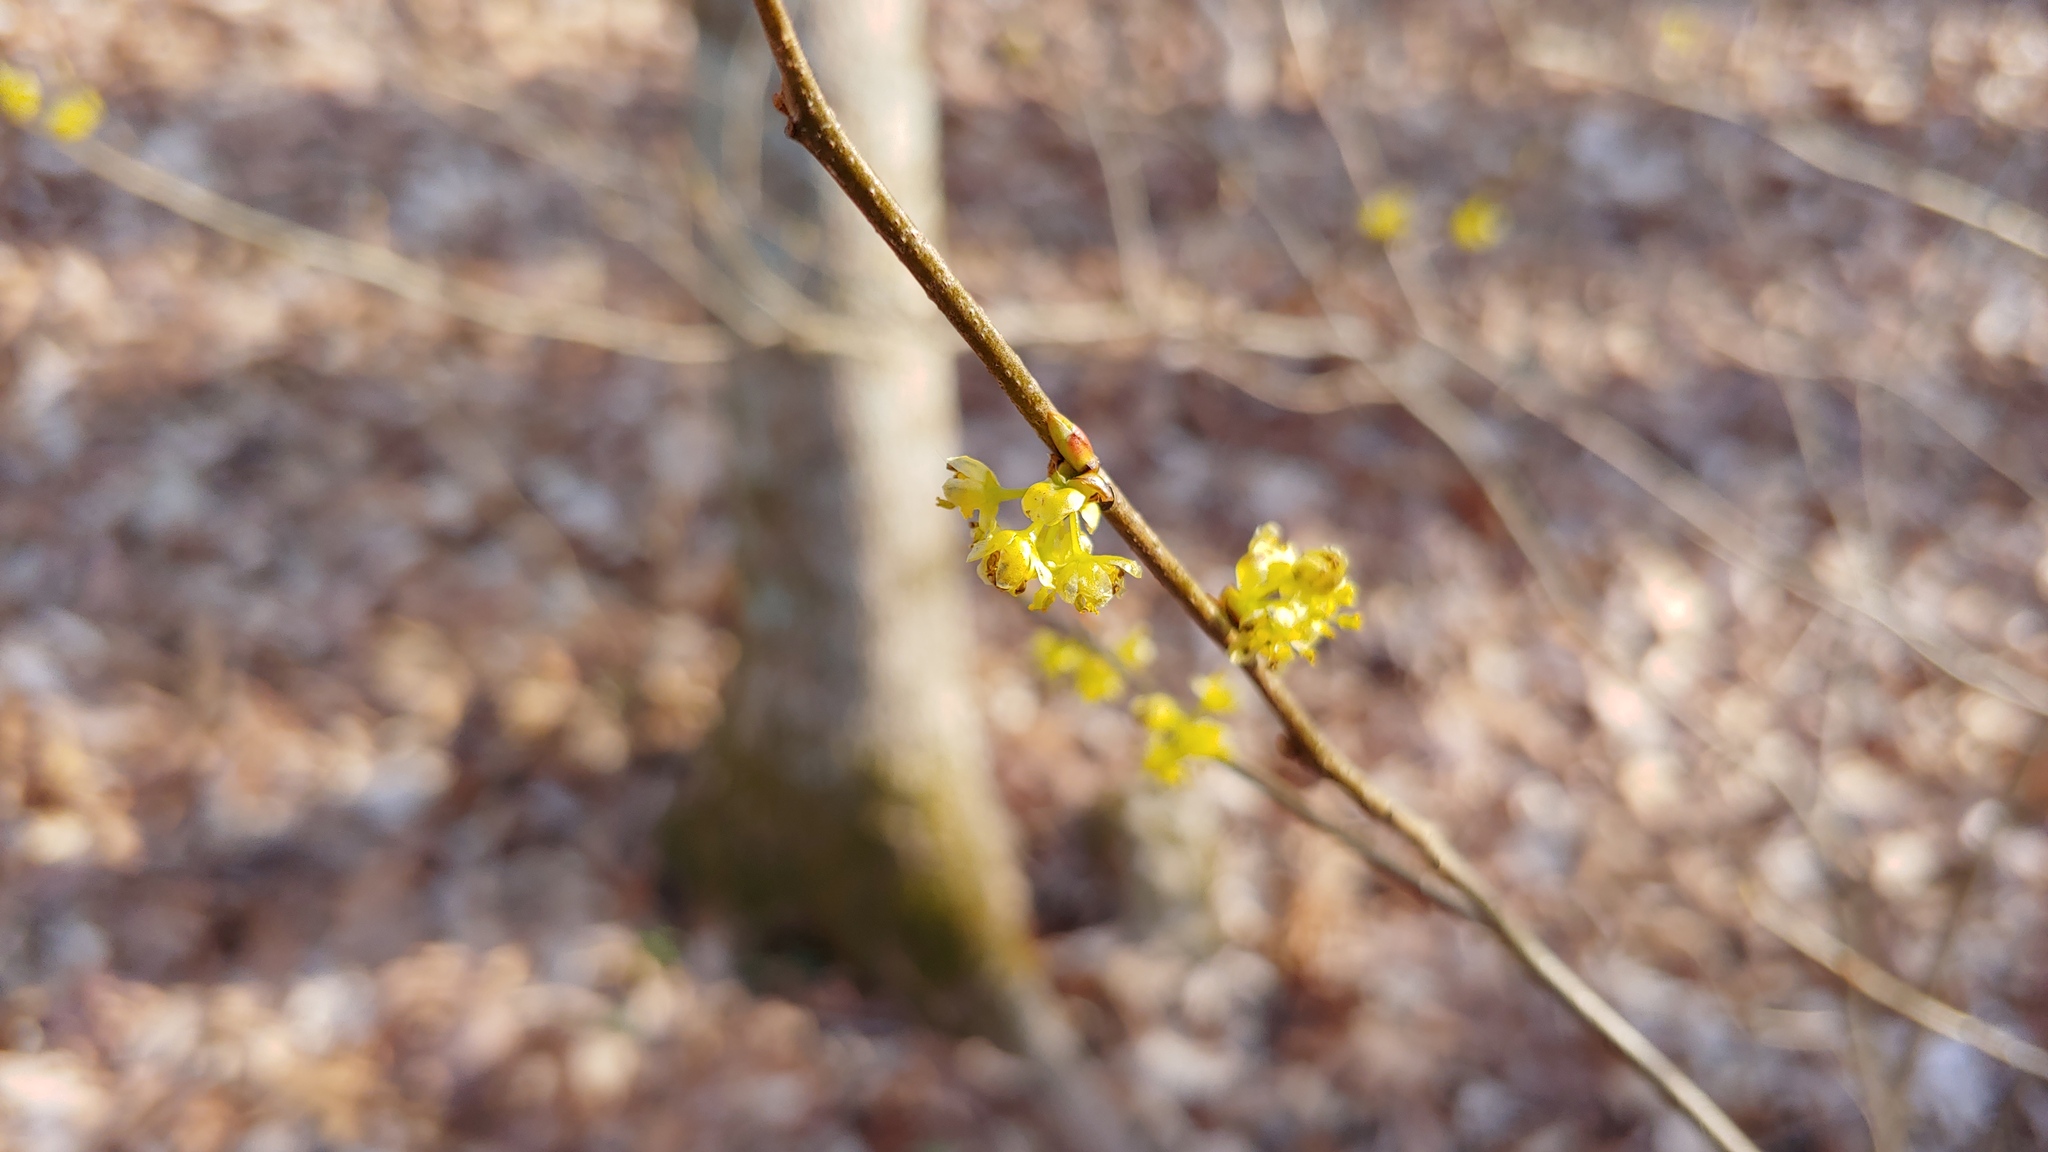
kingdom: Plantae
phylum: Tracheophyta
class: Magnoliopsida
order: Laurales
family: Lauraceae
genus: Lindera
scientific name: Lindera benzoin
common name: Spicebush
